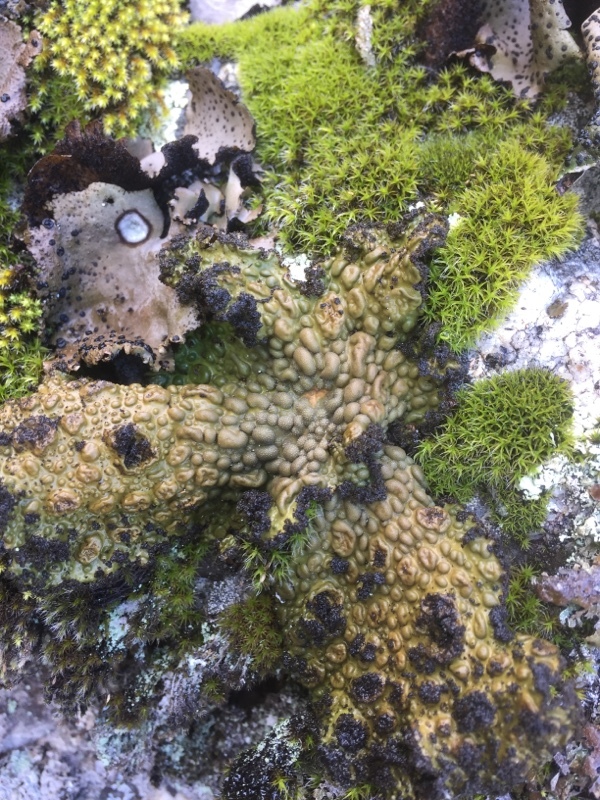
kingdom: Fungi
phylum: Ascomycota
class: Lecanoromycetes
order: Umbilicariales
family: Umbilicariaceae
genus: Lasallia
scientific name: Lasallia pustulata
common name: Blistered toadskin lichen
